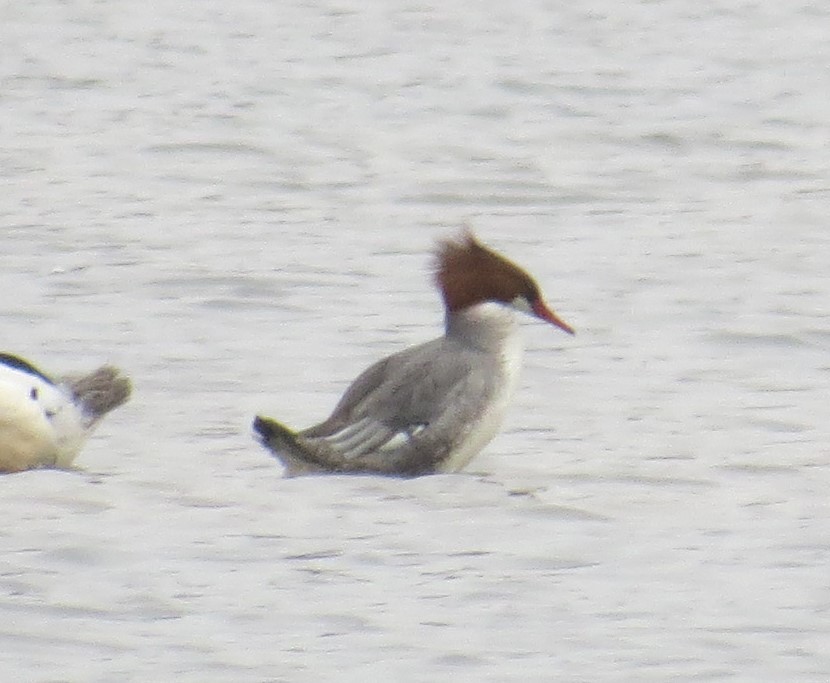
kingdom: Animalia
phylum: Chordata
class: Aves
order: Anseriformes
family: Anatidae
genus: Mergus
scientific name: Mergus merganser
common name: Common merganser
